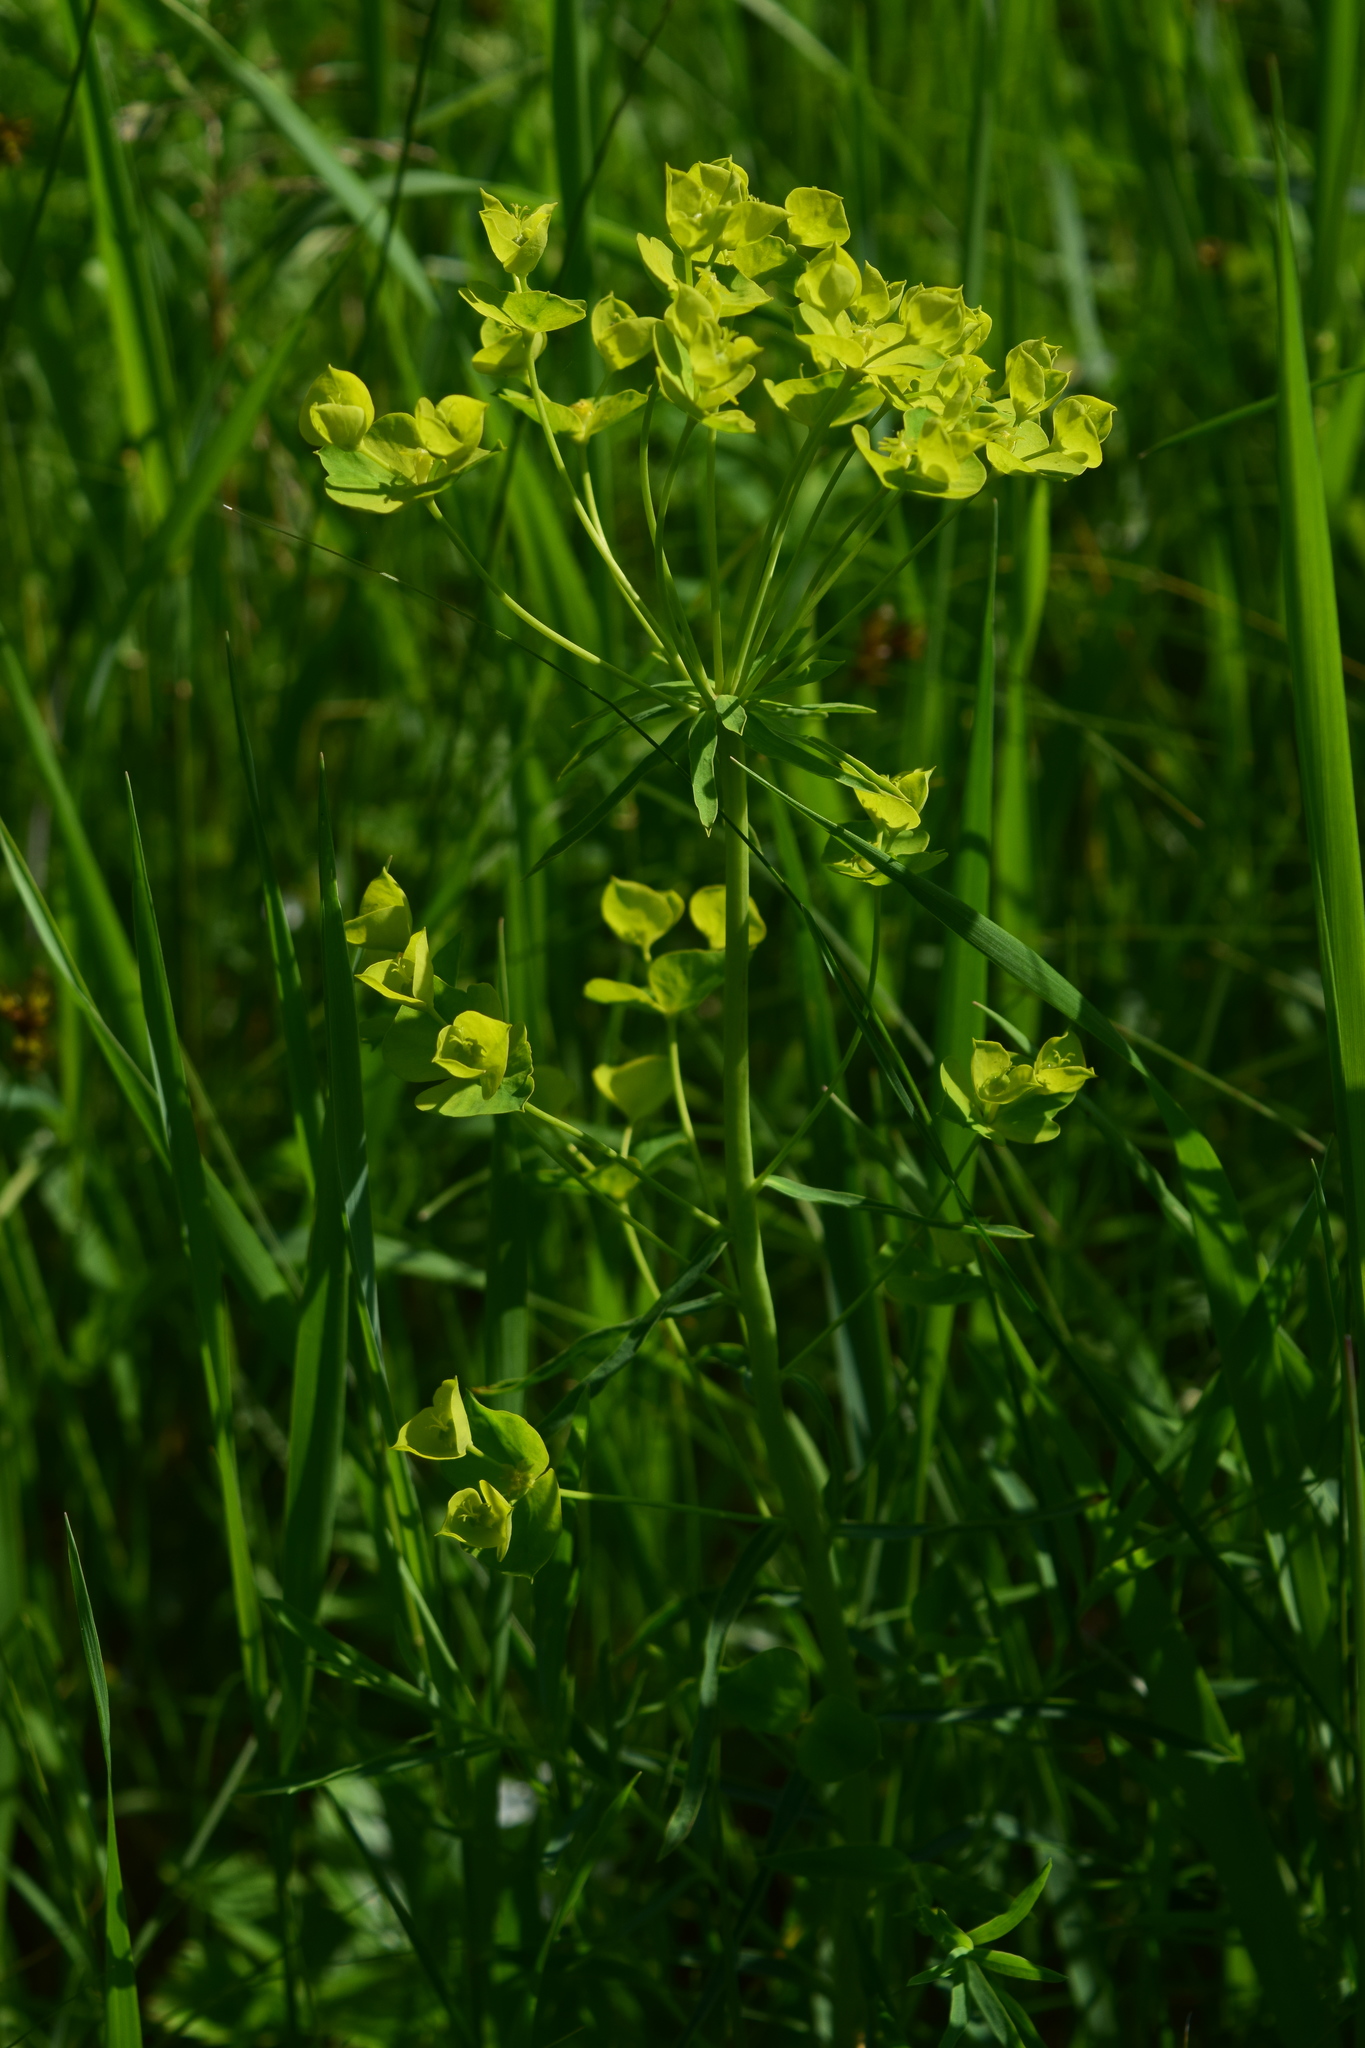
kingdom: Plantae
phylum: Tracheophyta
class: Magnoliopsida
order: Malpighiales
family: Euphorbiaceae
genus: Euphorbia
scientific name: Euphorbia virgata
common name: Leafy spurge
